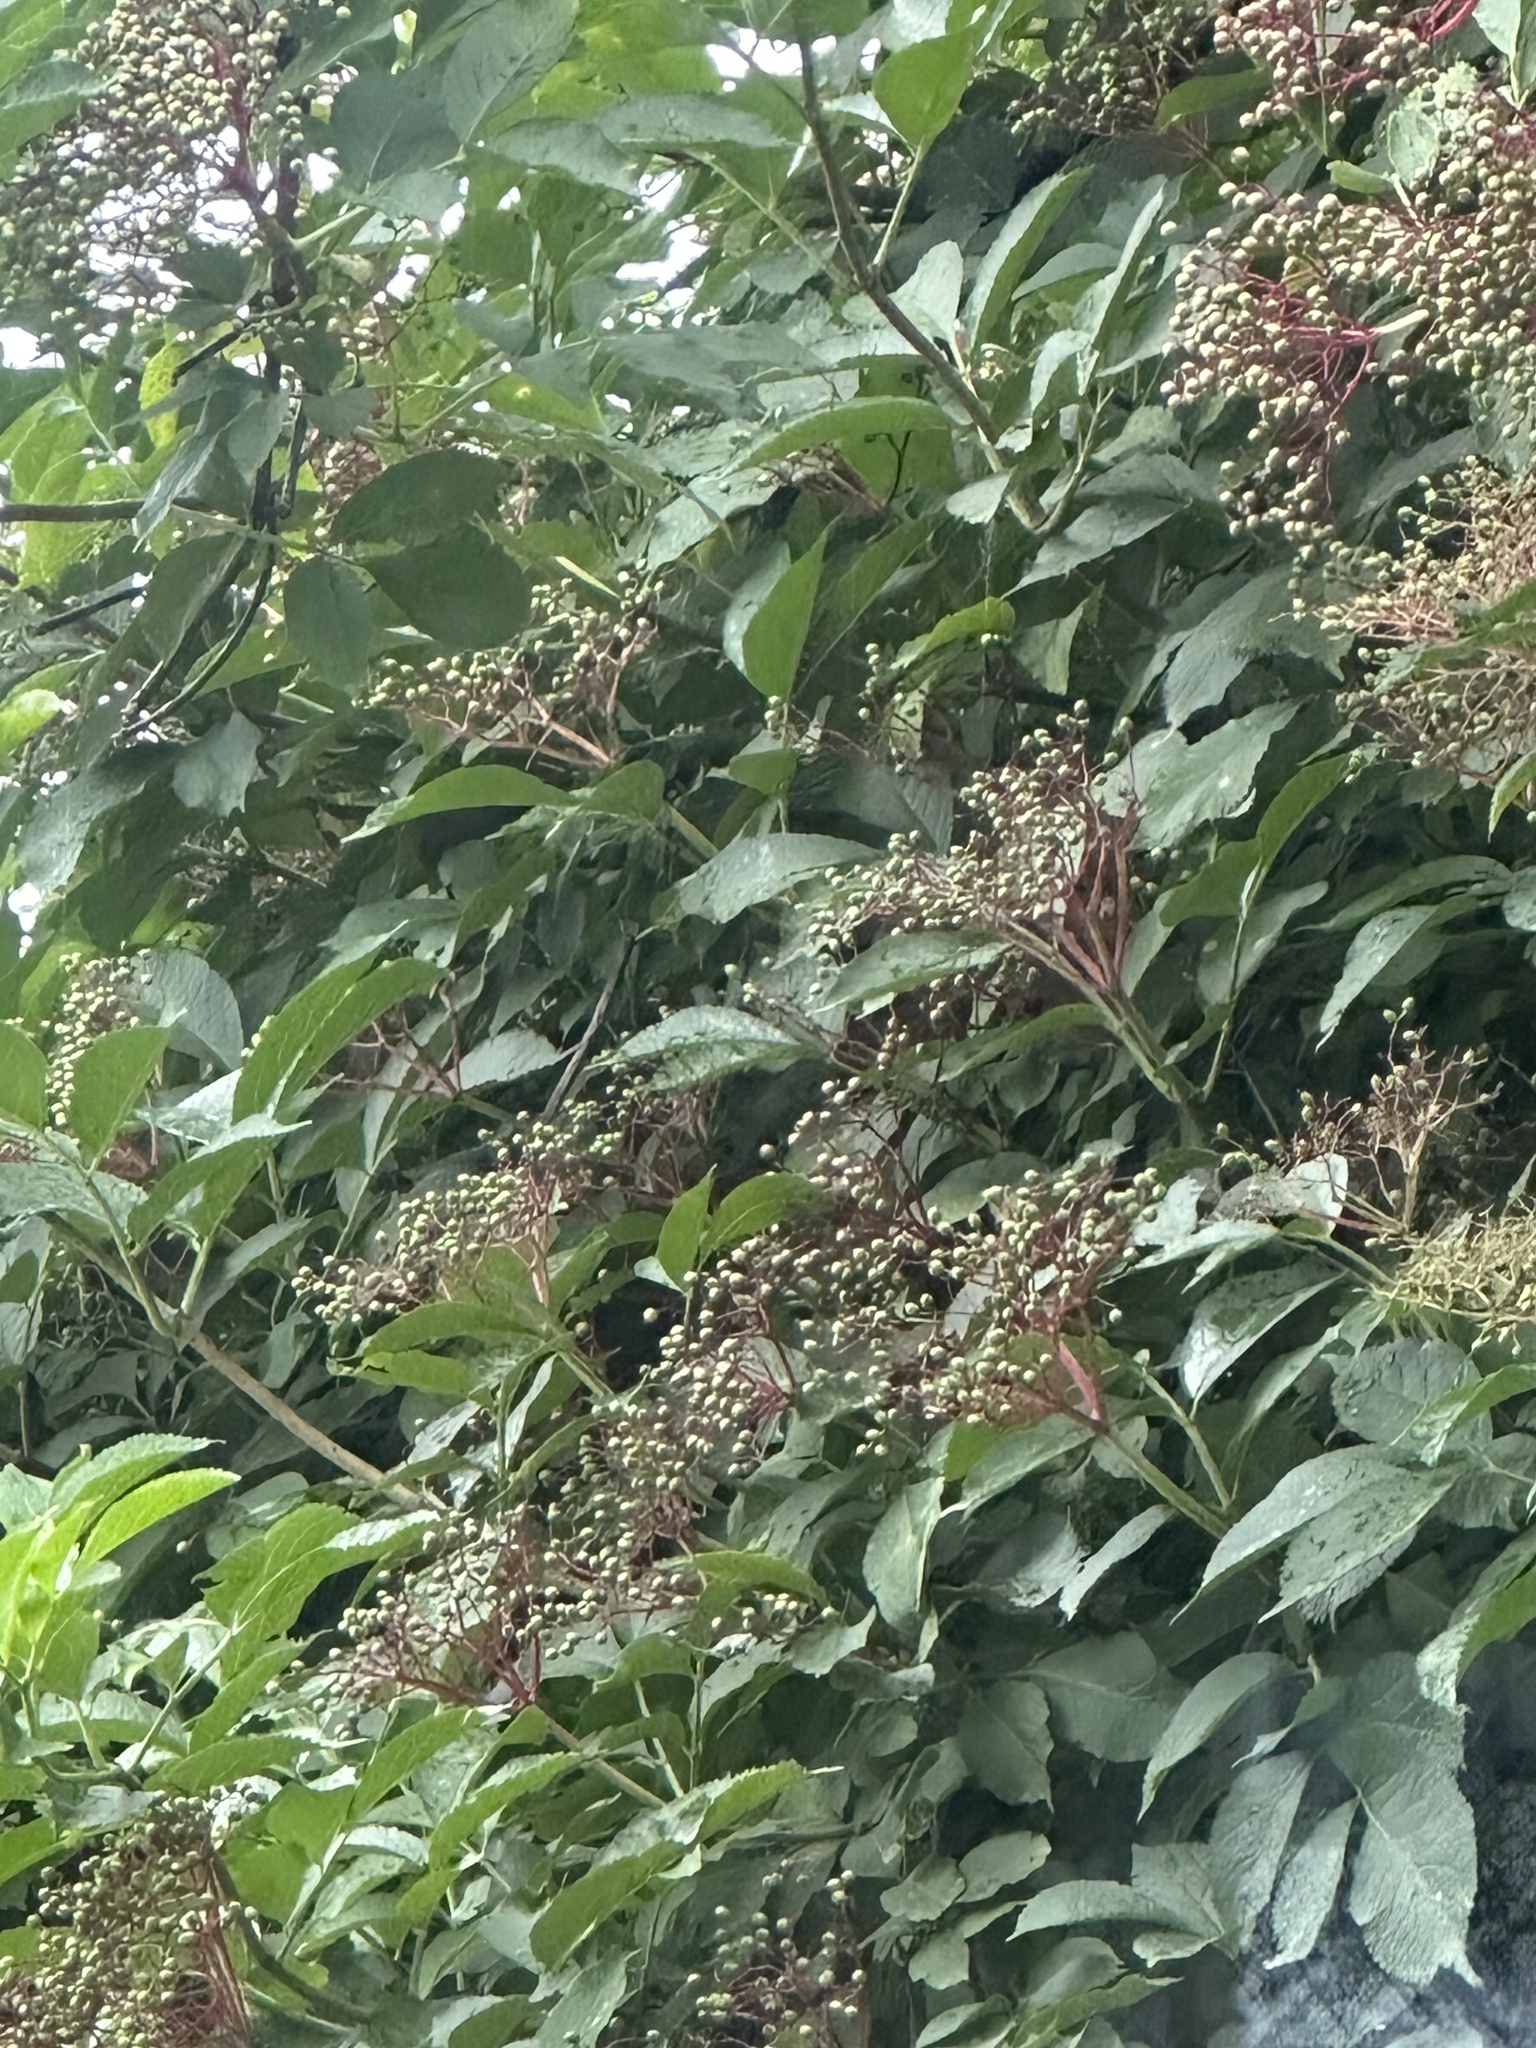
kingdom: Plantae
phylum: Tracheophyta
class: Magnoliopsida
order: Dipsacales
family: Viburnaceae
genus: Sambucus
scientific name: Sambucus nigra
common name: Elder
